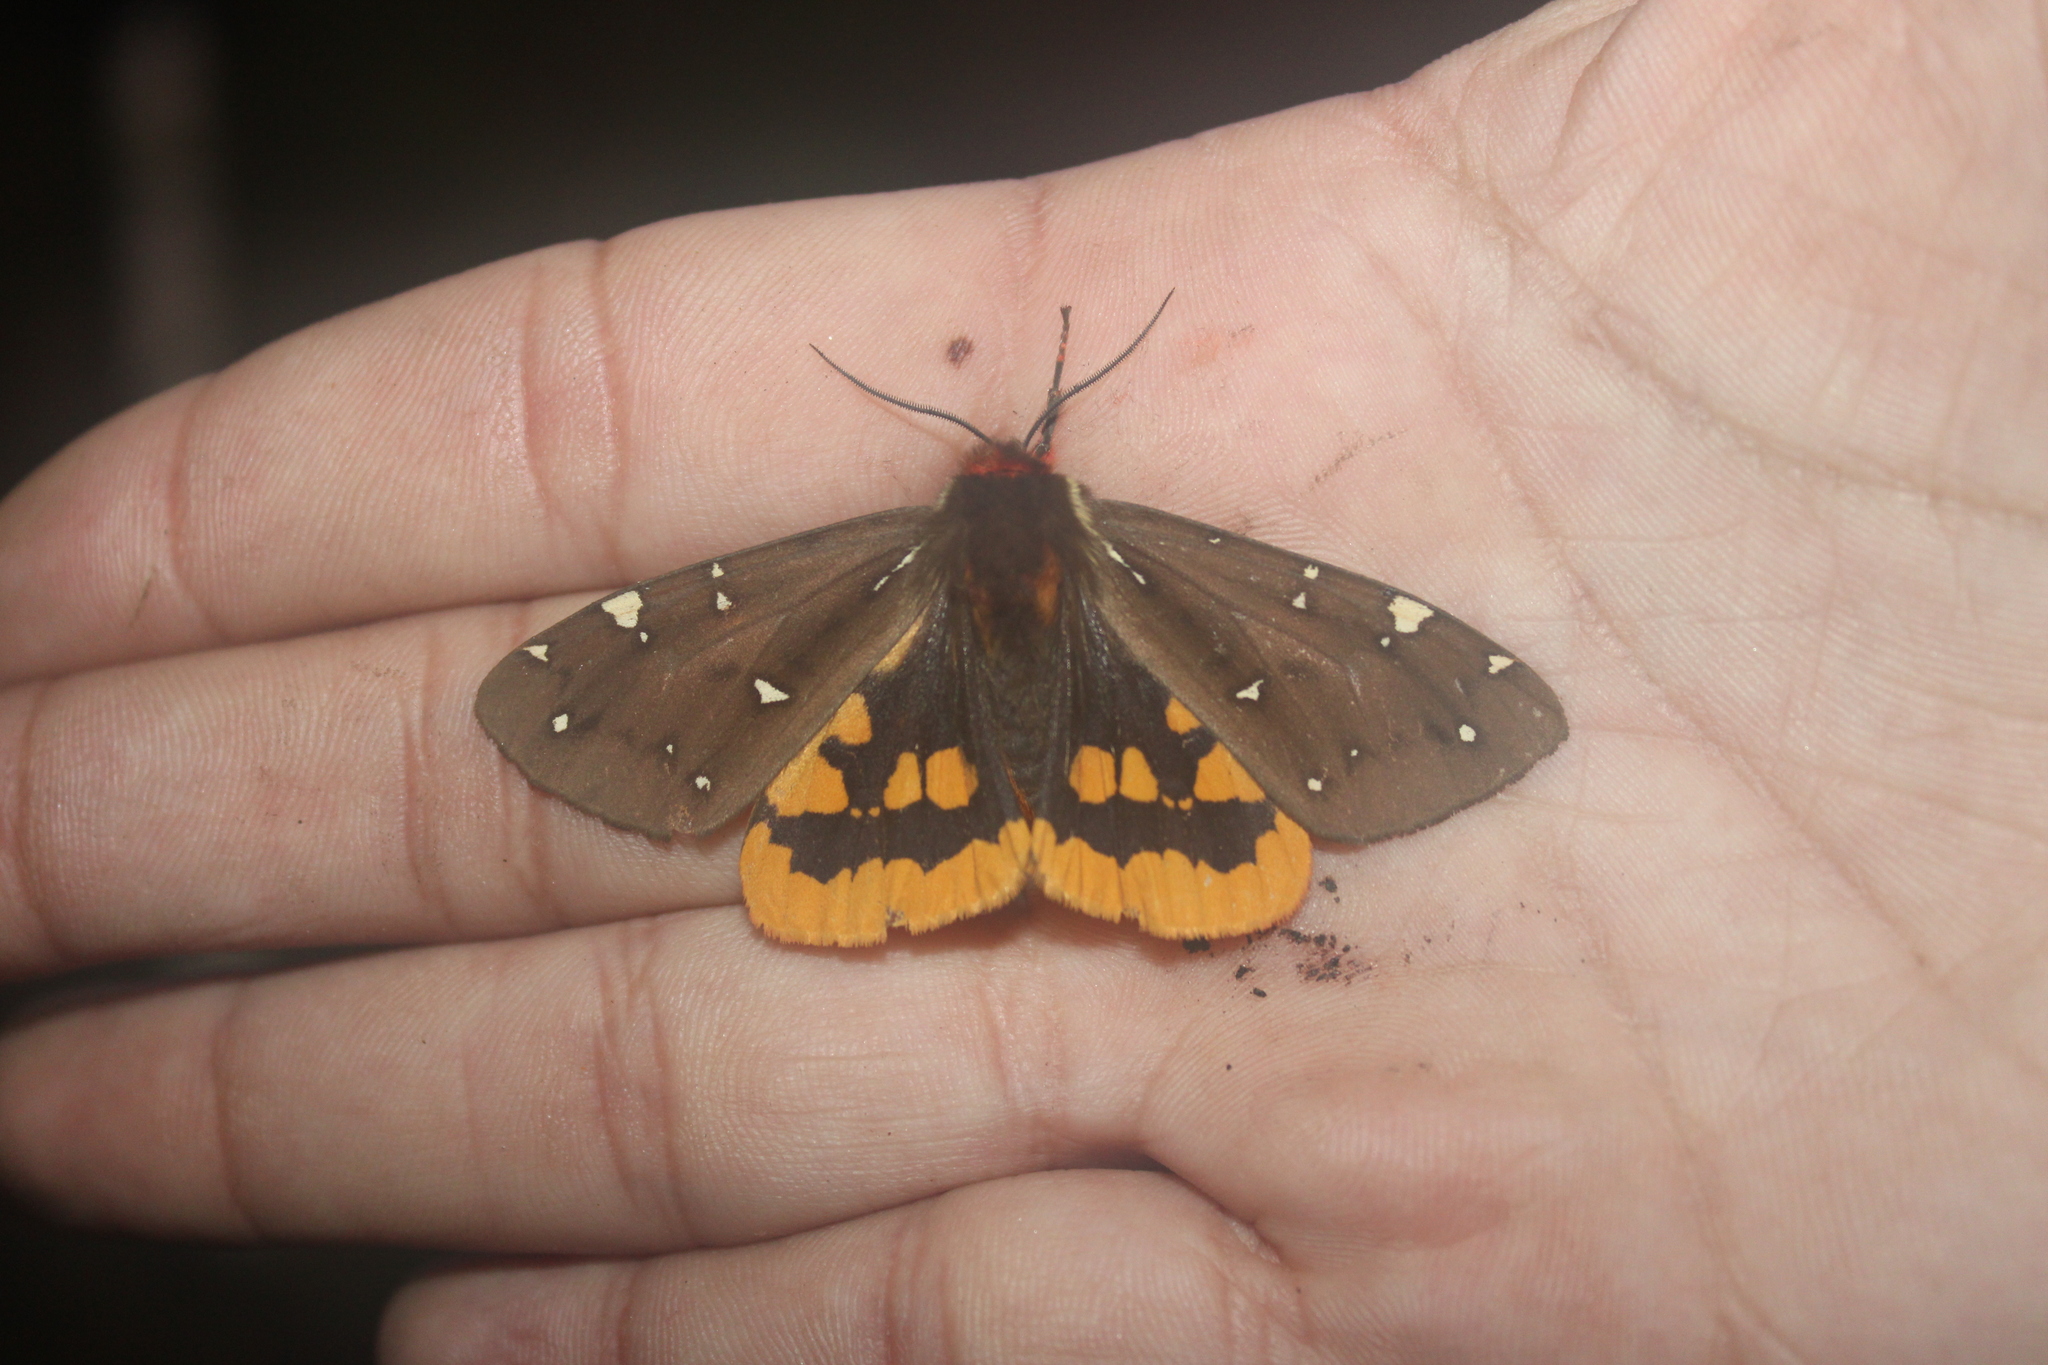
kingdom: Animalia
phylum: Arthropoda
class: Insecta
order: Lepidoptera
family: Erebidae
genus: Arctia
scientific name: Arctia parthenos
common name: St. lawrence tiger moth
